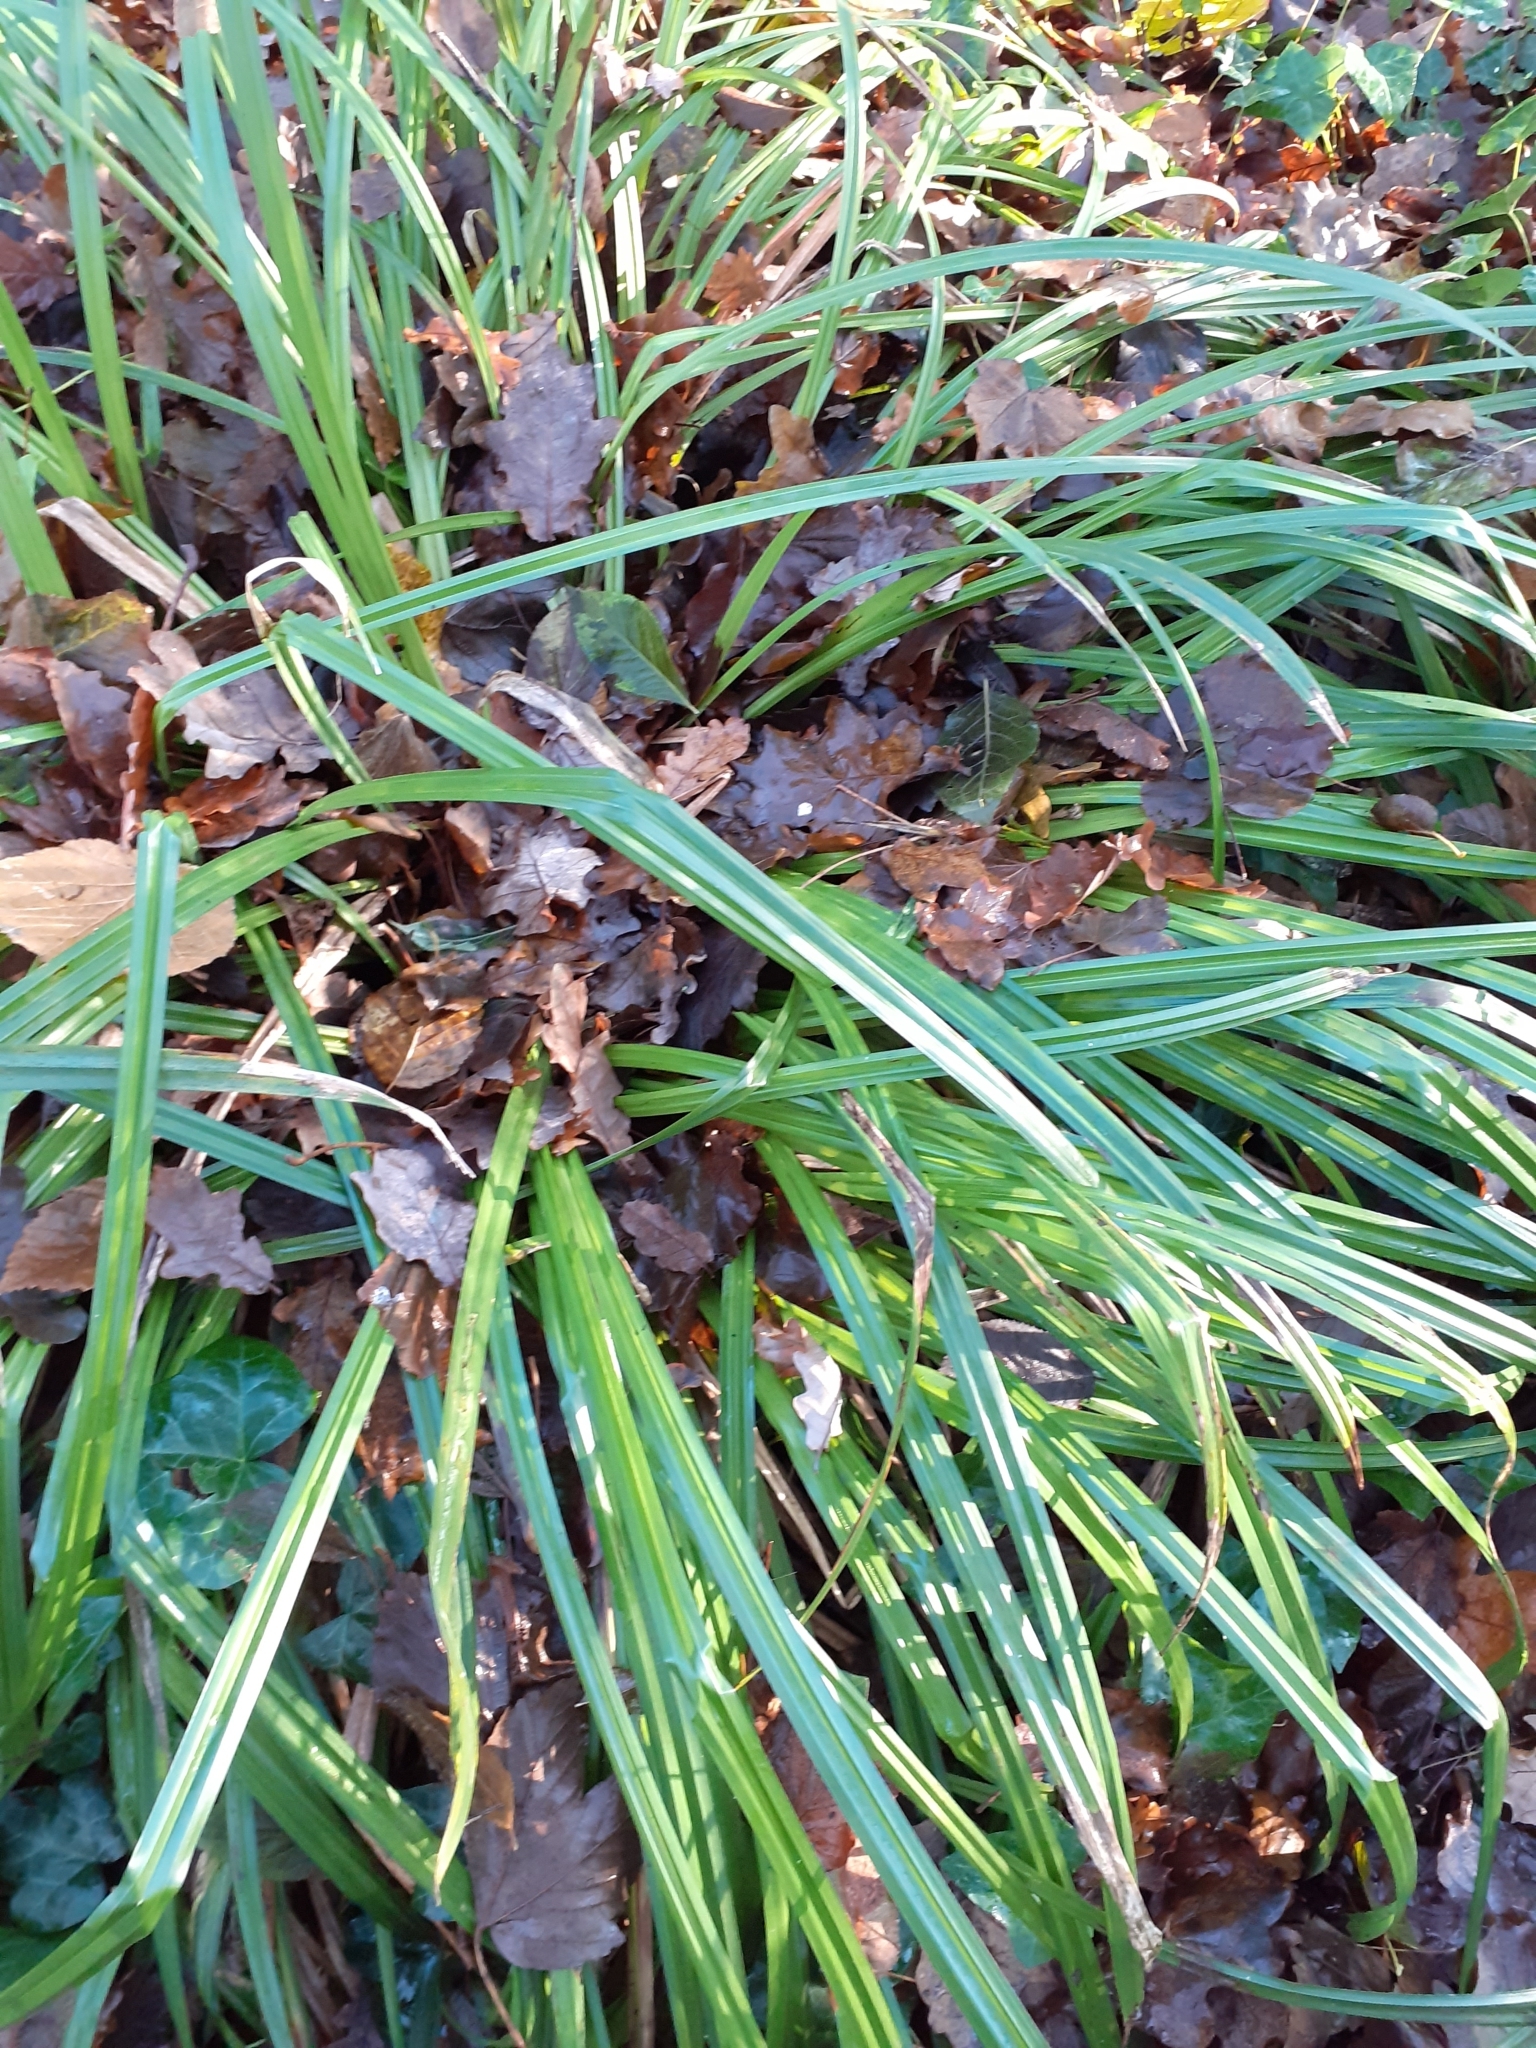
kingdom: Plantae
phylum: Tracheophyta
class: Liliopsida
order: Poales
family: Cyperaceae
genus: Carex
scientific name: Carex pendula
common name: Pendulous sedge
